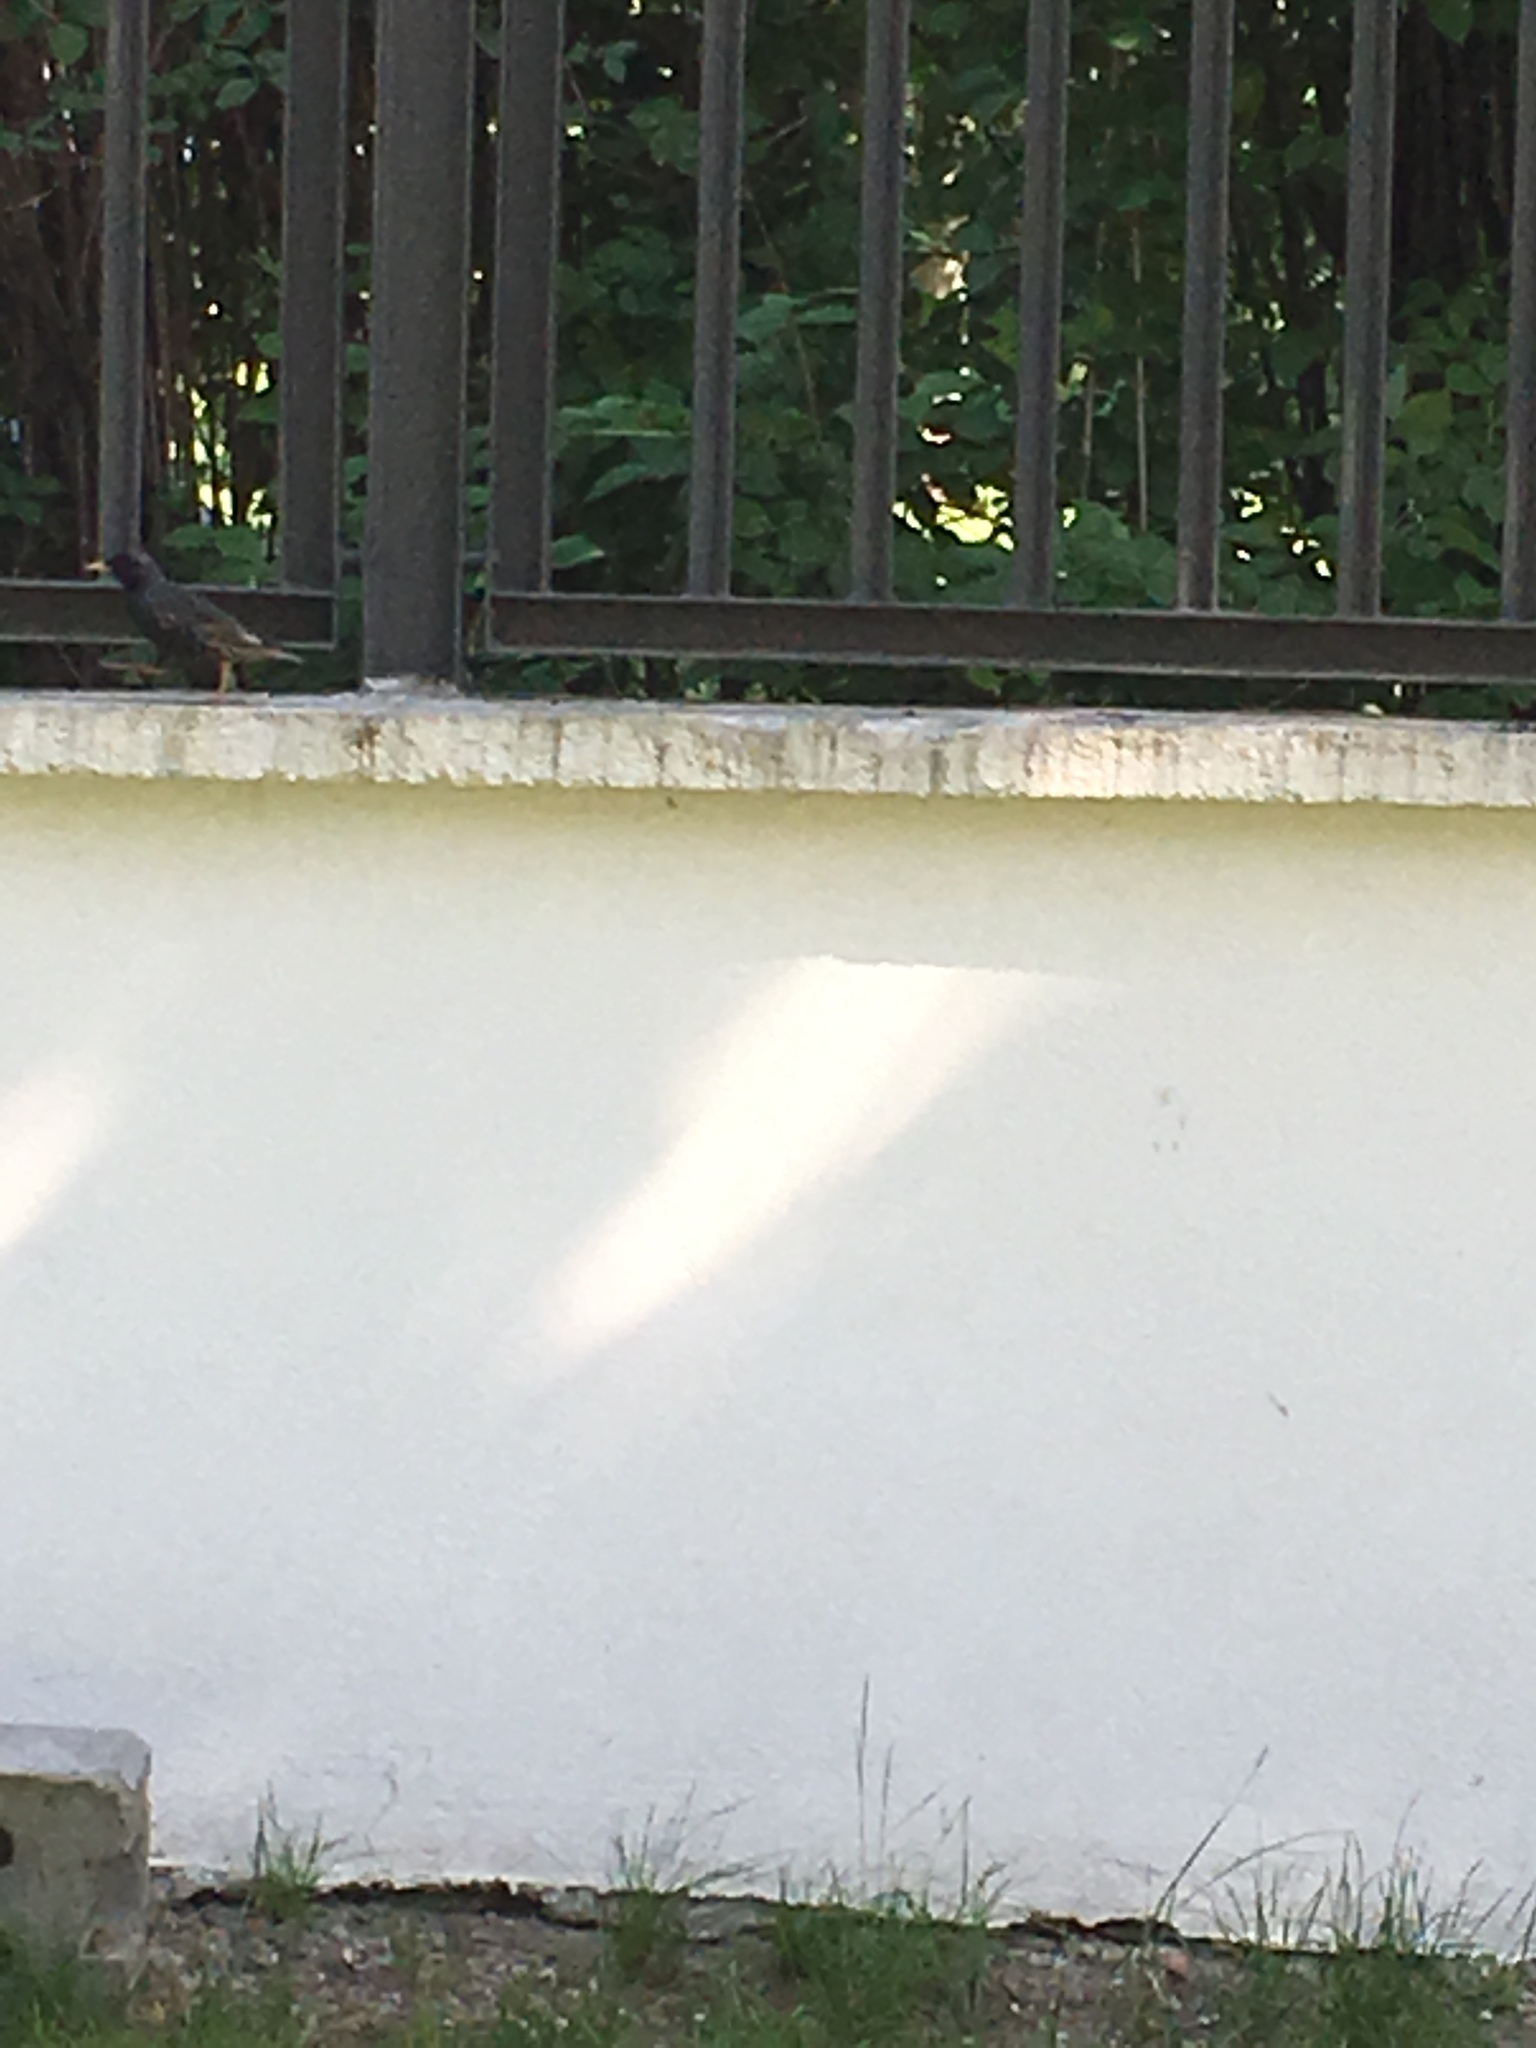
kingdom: Animalia
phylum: Chordata
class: Aves
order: Passeriformes
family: Sturnidae
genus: Sturnus
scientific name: Sturnus vulgaris
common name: Common starling
